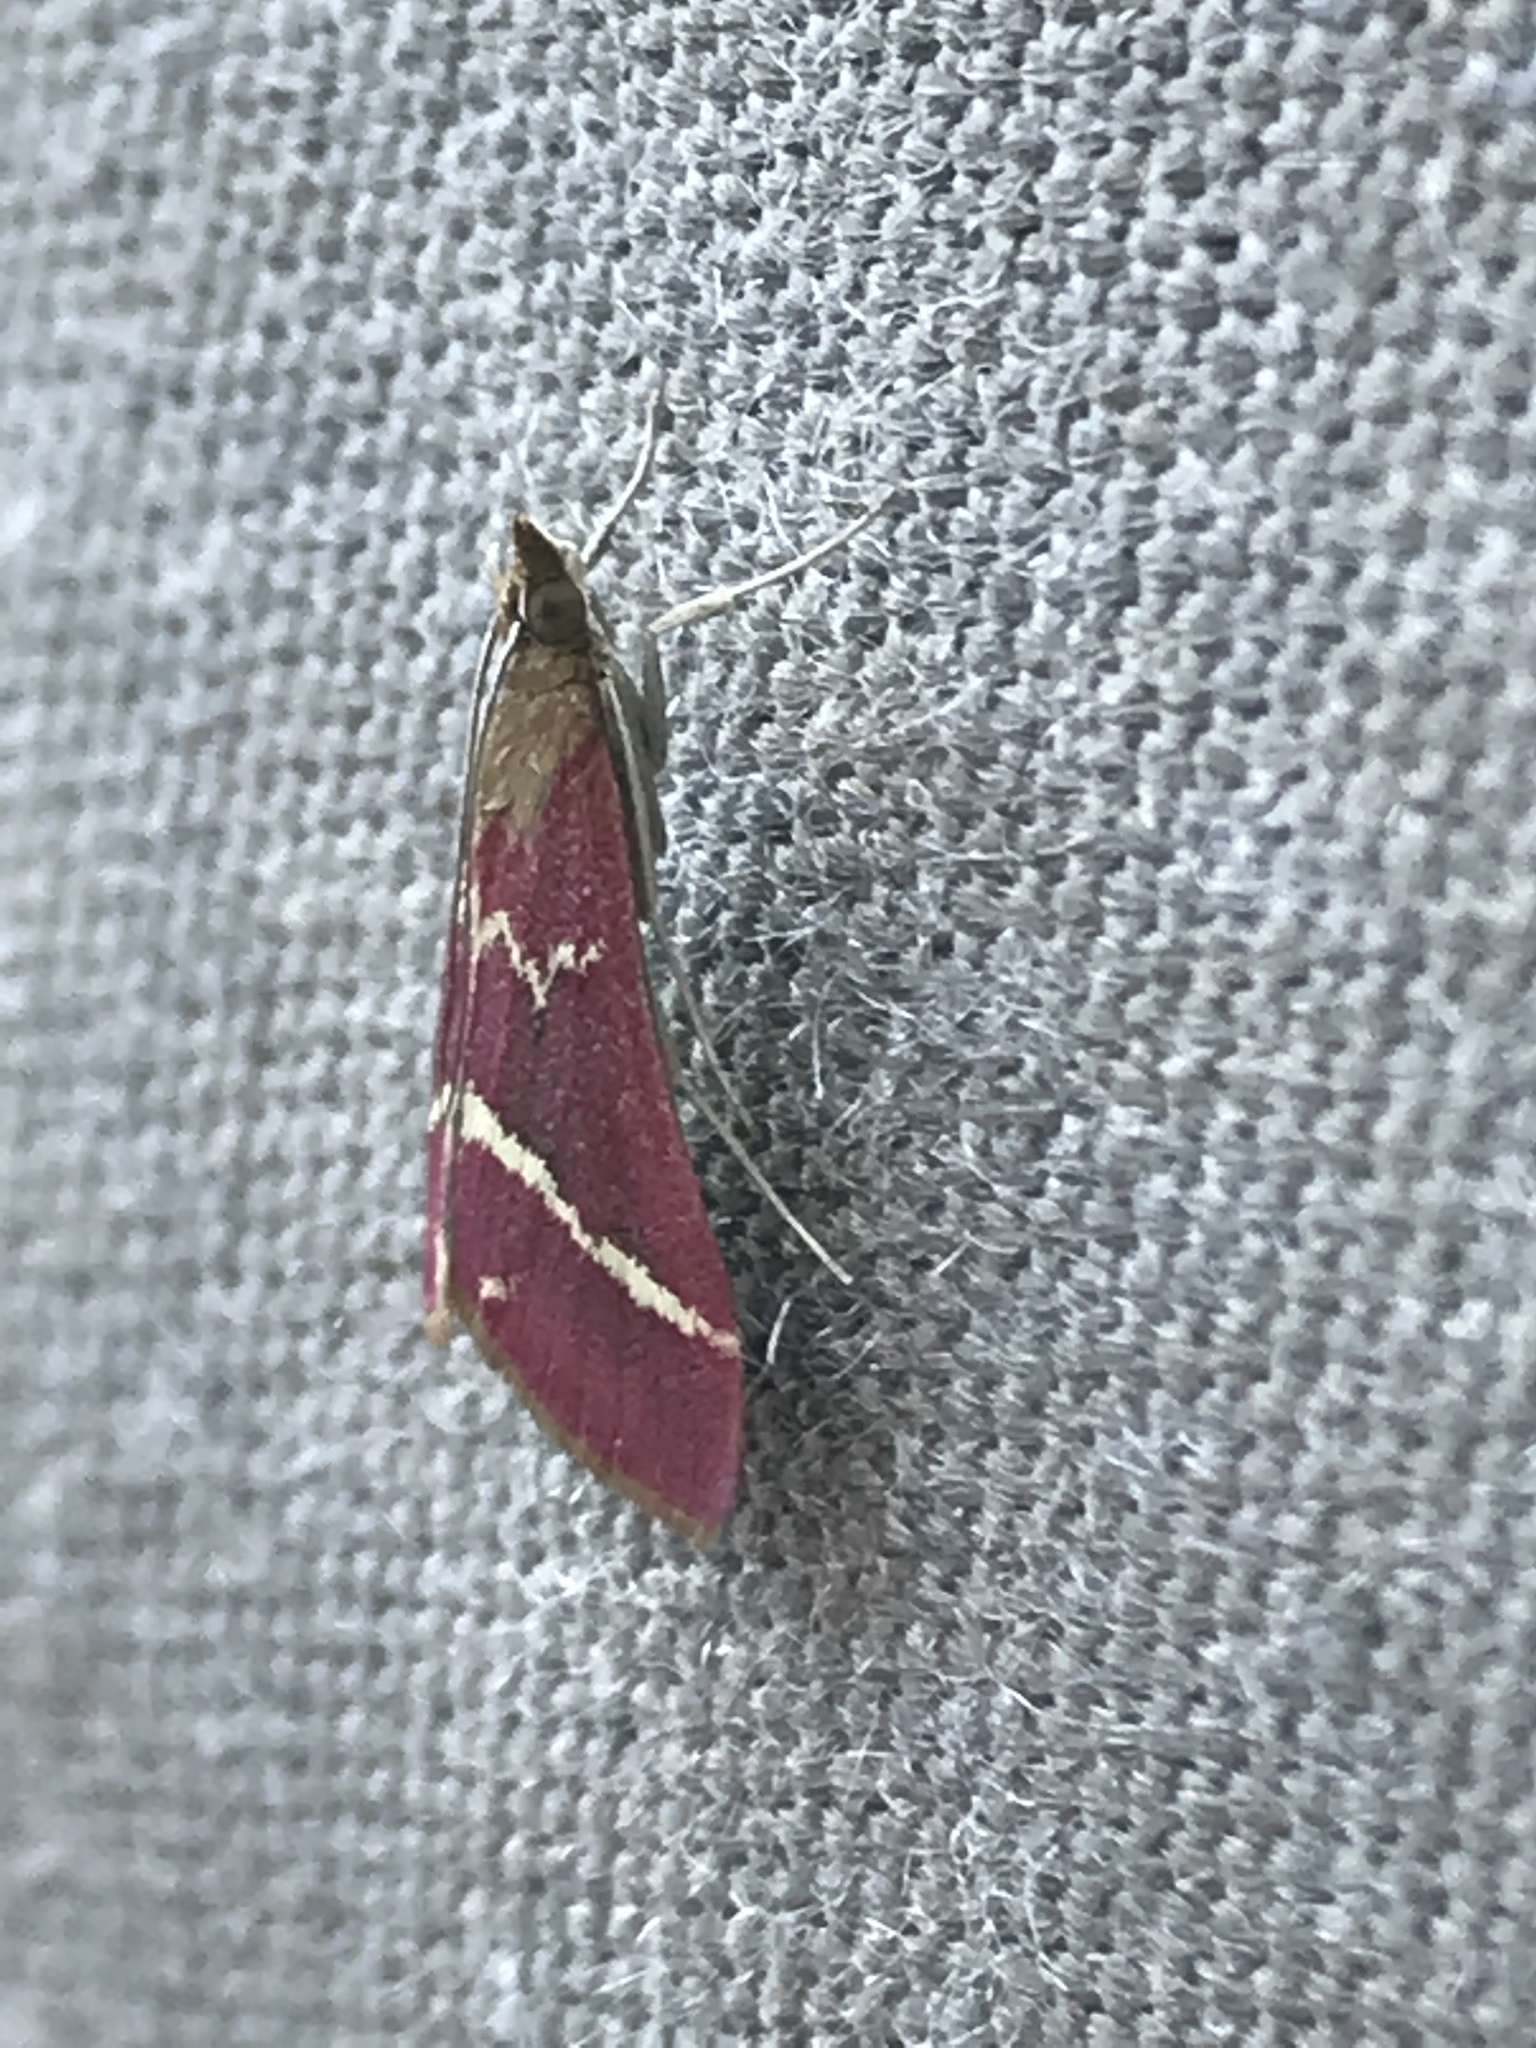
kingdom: Animalia
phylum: Arthropoda
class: Insecta
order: Lepidoptera
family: Crambidae
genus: Pyrausta
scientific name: Pyrausta volupialis
